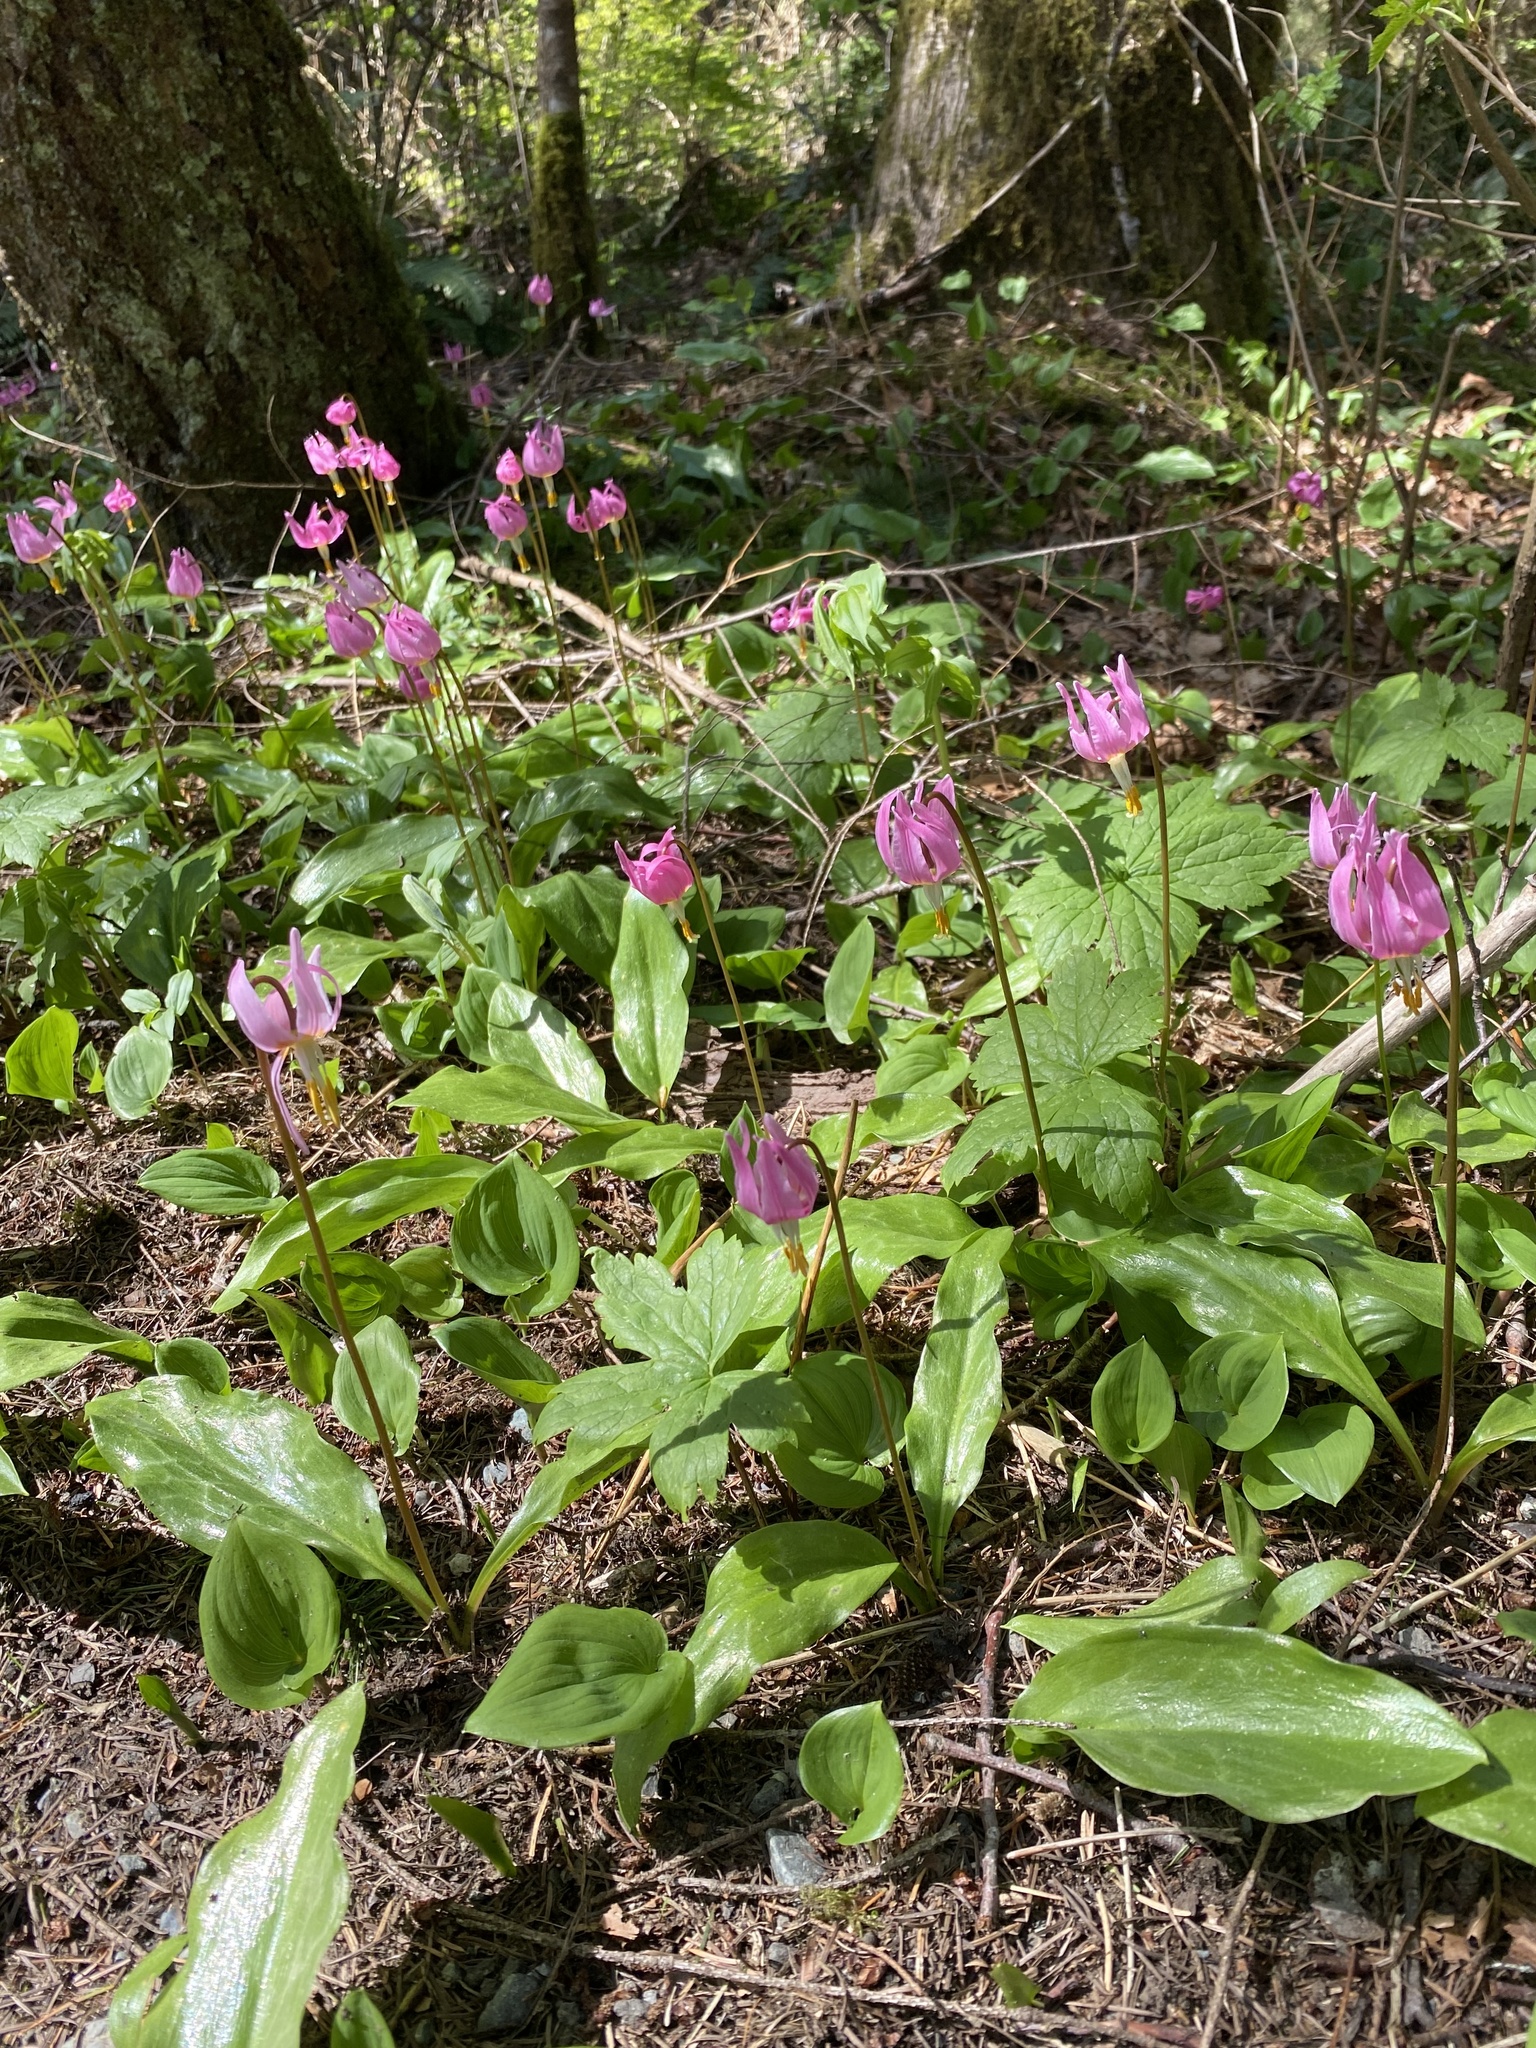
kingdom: Plantae
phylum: Tracheophyta
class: Liliopsida
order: Liliales
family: Liliaceae
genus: Erythronium
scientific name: Erythronium revolutum
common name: Pink fawn-lily
